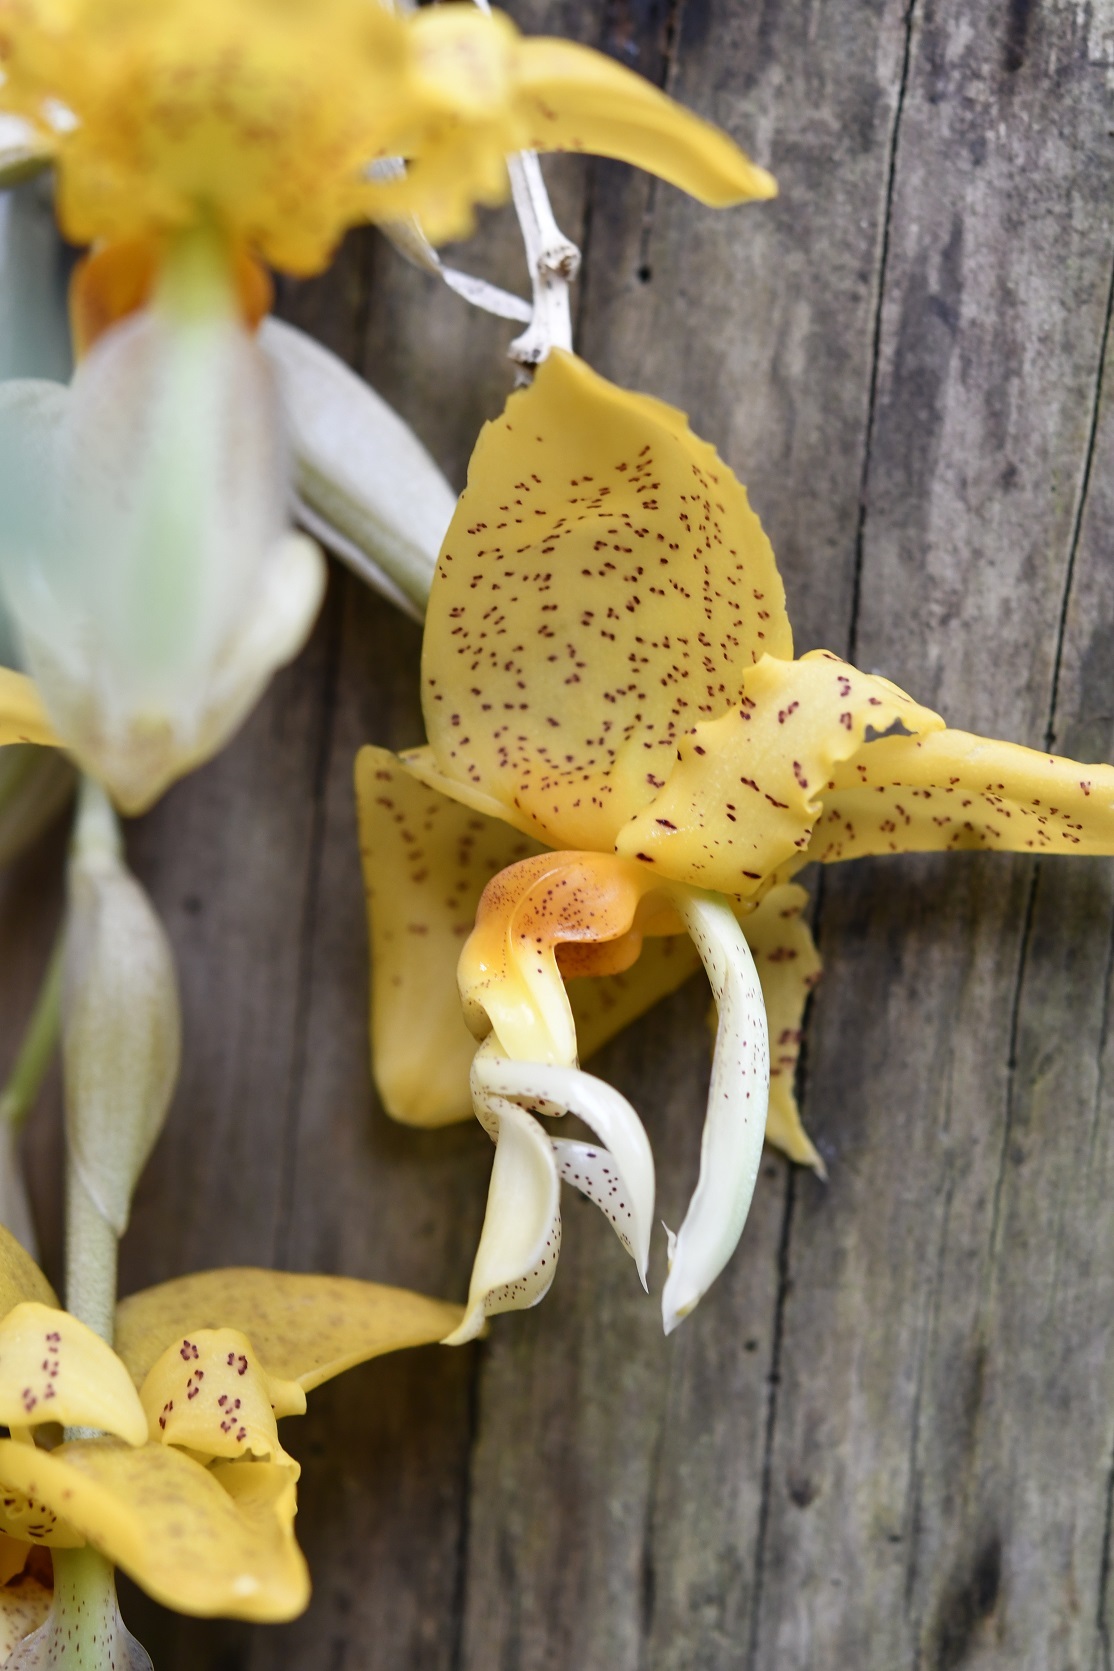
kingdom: Plantae
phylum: Tracheophyta
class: Liliopsida
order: Asparagales
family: Orchidaceae
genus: Stanhopea
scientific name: Stanhopea graveolens
